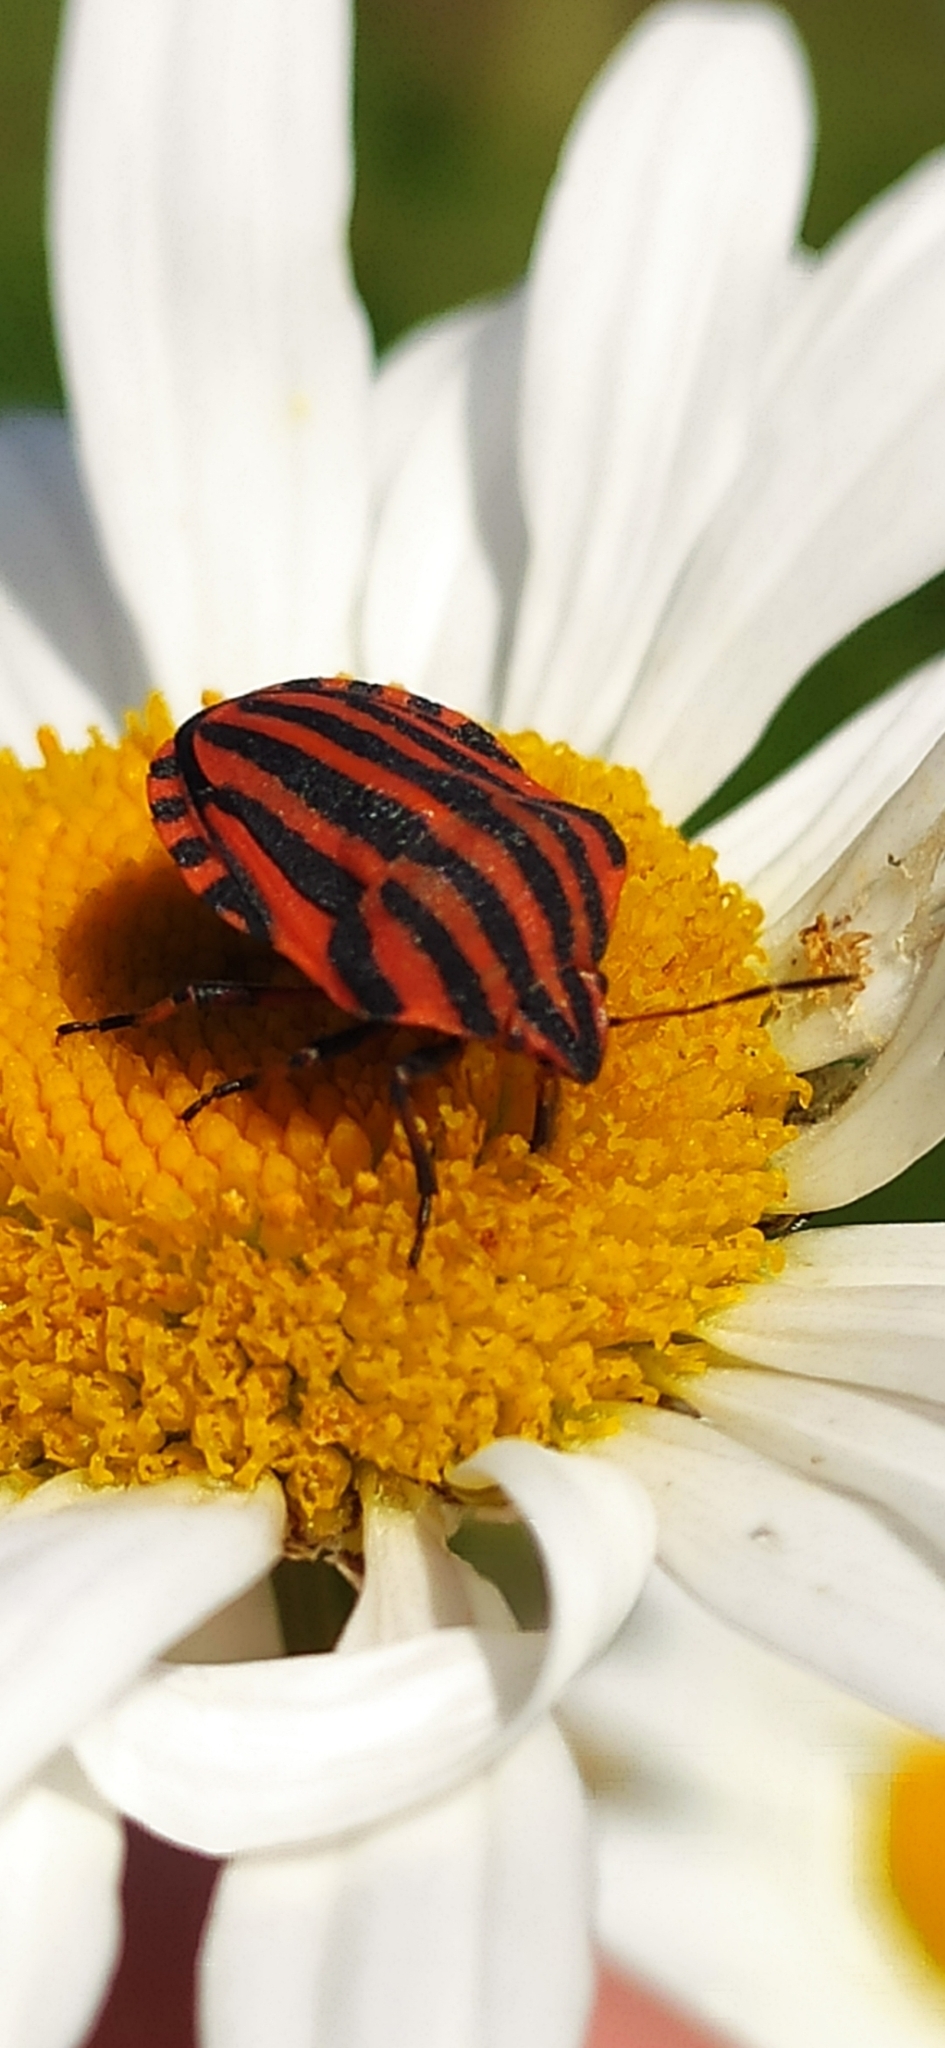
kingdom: Animalia
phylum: Arthropoda
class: Insecta
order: Hemiptera
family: Pentatomidae
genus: Graphosoma
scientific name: Graphosoma italicum
